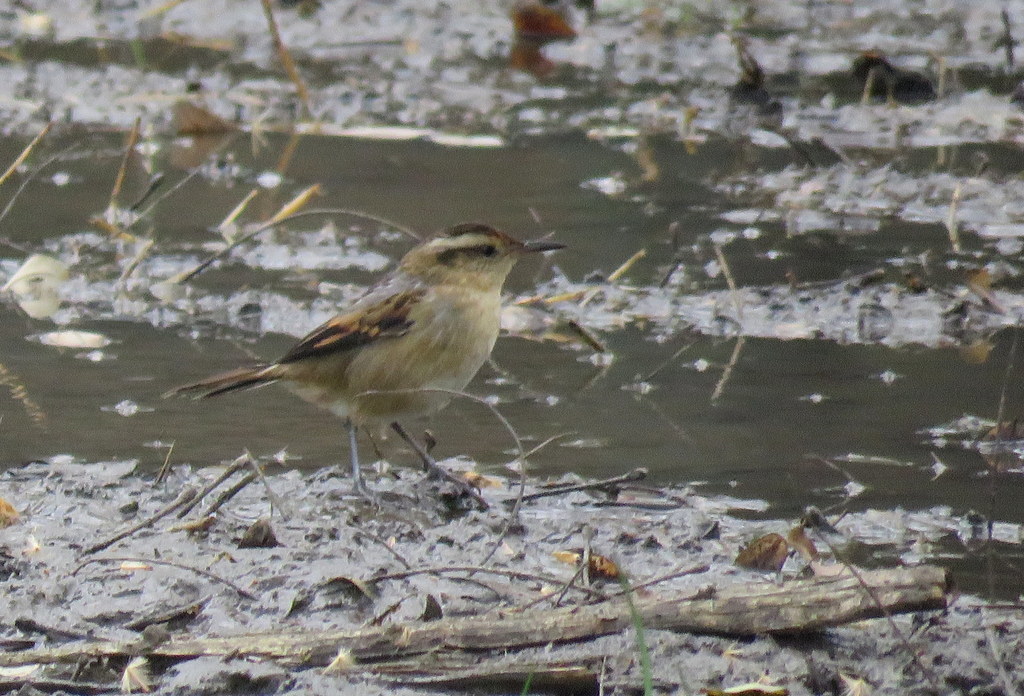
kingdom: Animalia
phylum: Chordata
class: Aves
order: Passeriformes
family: Furnariidae
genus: Phleocryptes
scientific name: Phleocryptes melanops
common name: Wren-like rushbird
